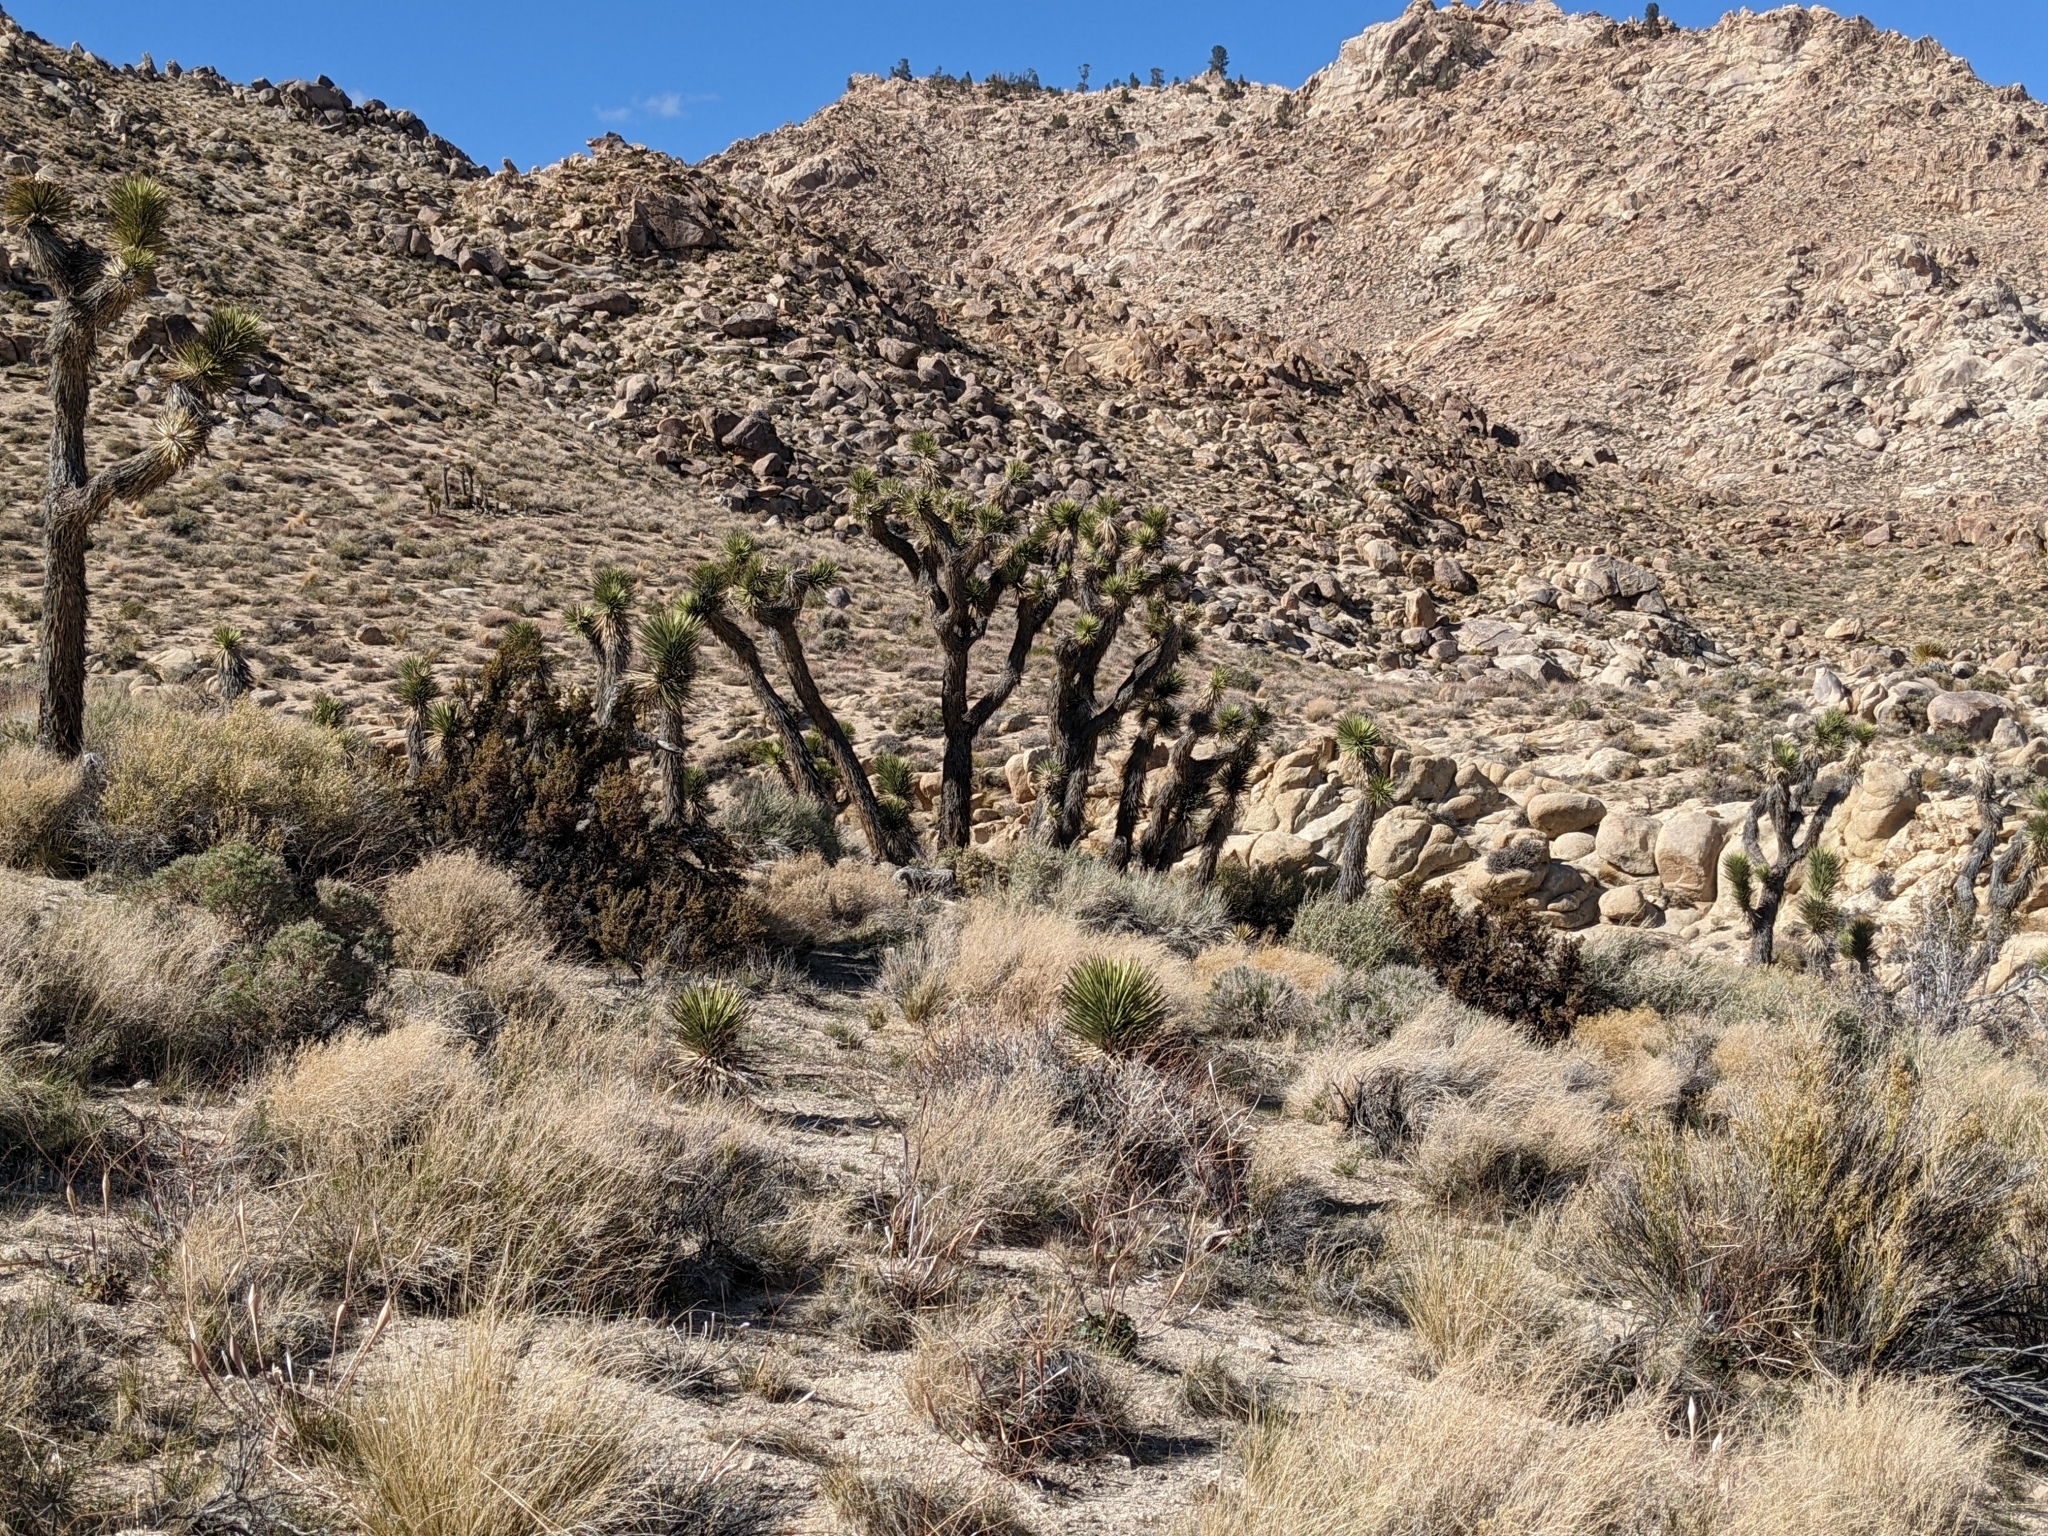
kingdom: Plantae
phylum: Tracheophyta
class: Liliopsida
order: Asparagales
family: Asparagaceae
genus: Yucca
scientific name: Yucca brevifolia
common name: Joshua tree
